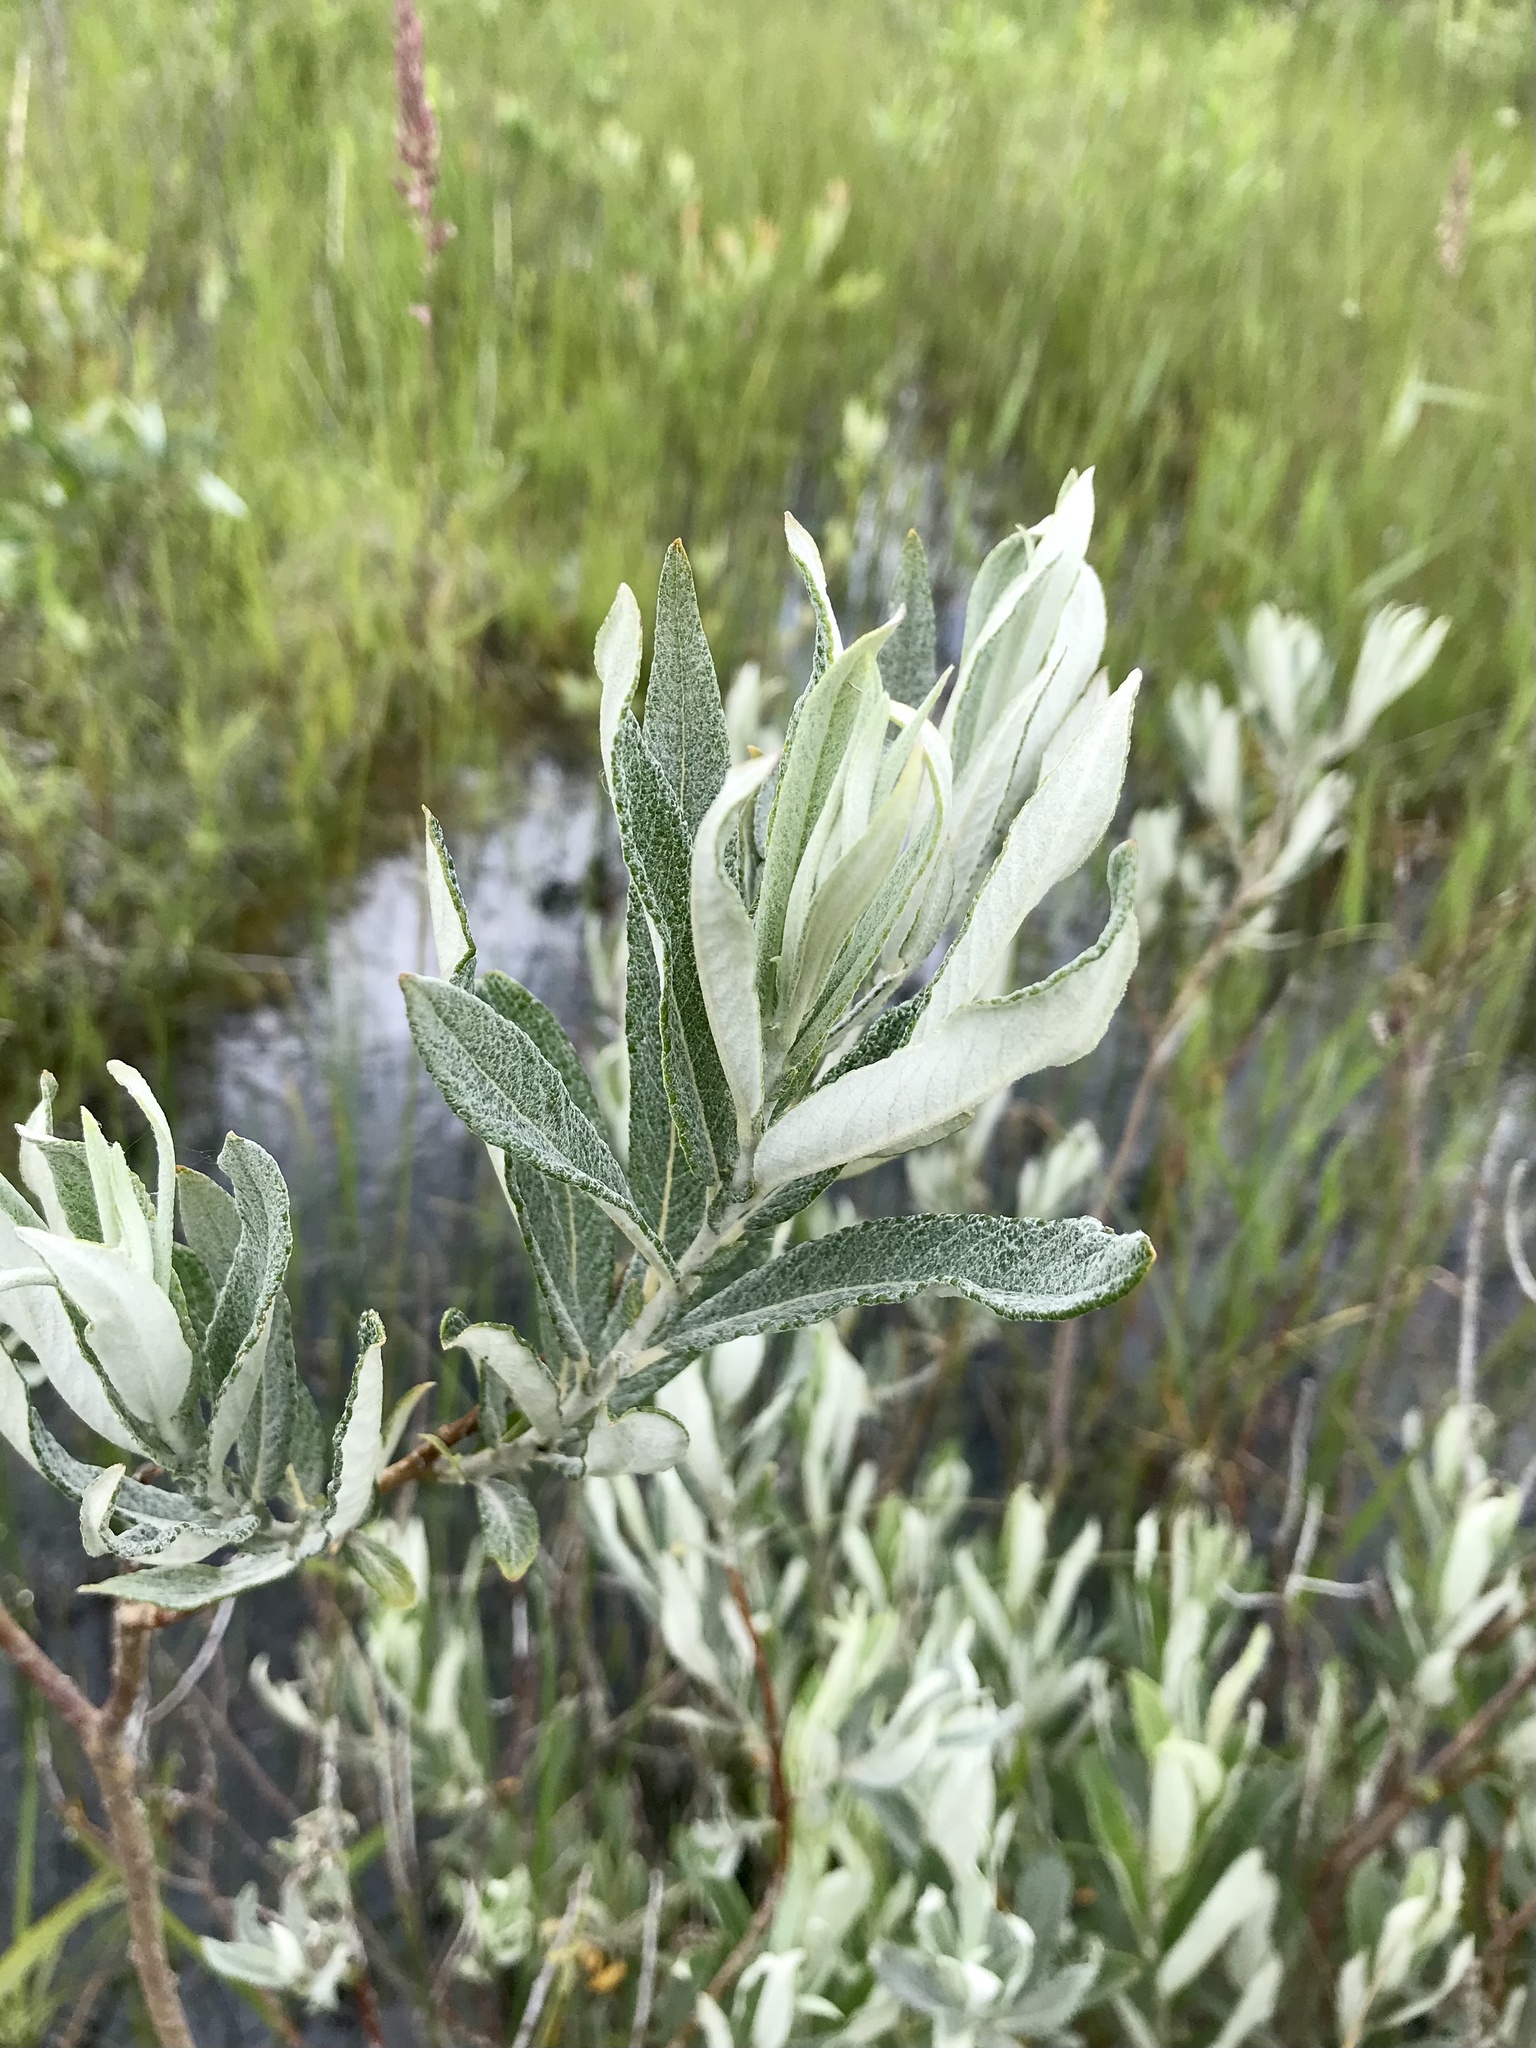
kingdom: Plantae
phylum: Tracheophyta
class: Magnoliopsida
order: Malpighiales
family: Salicaceae
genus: Salix
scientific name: Salix candida
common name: Hoary willow
